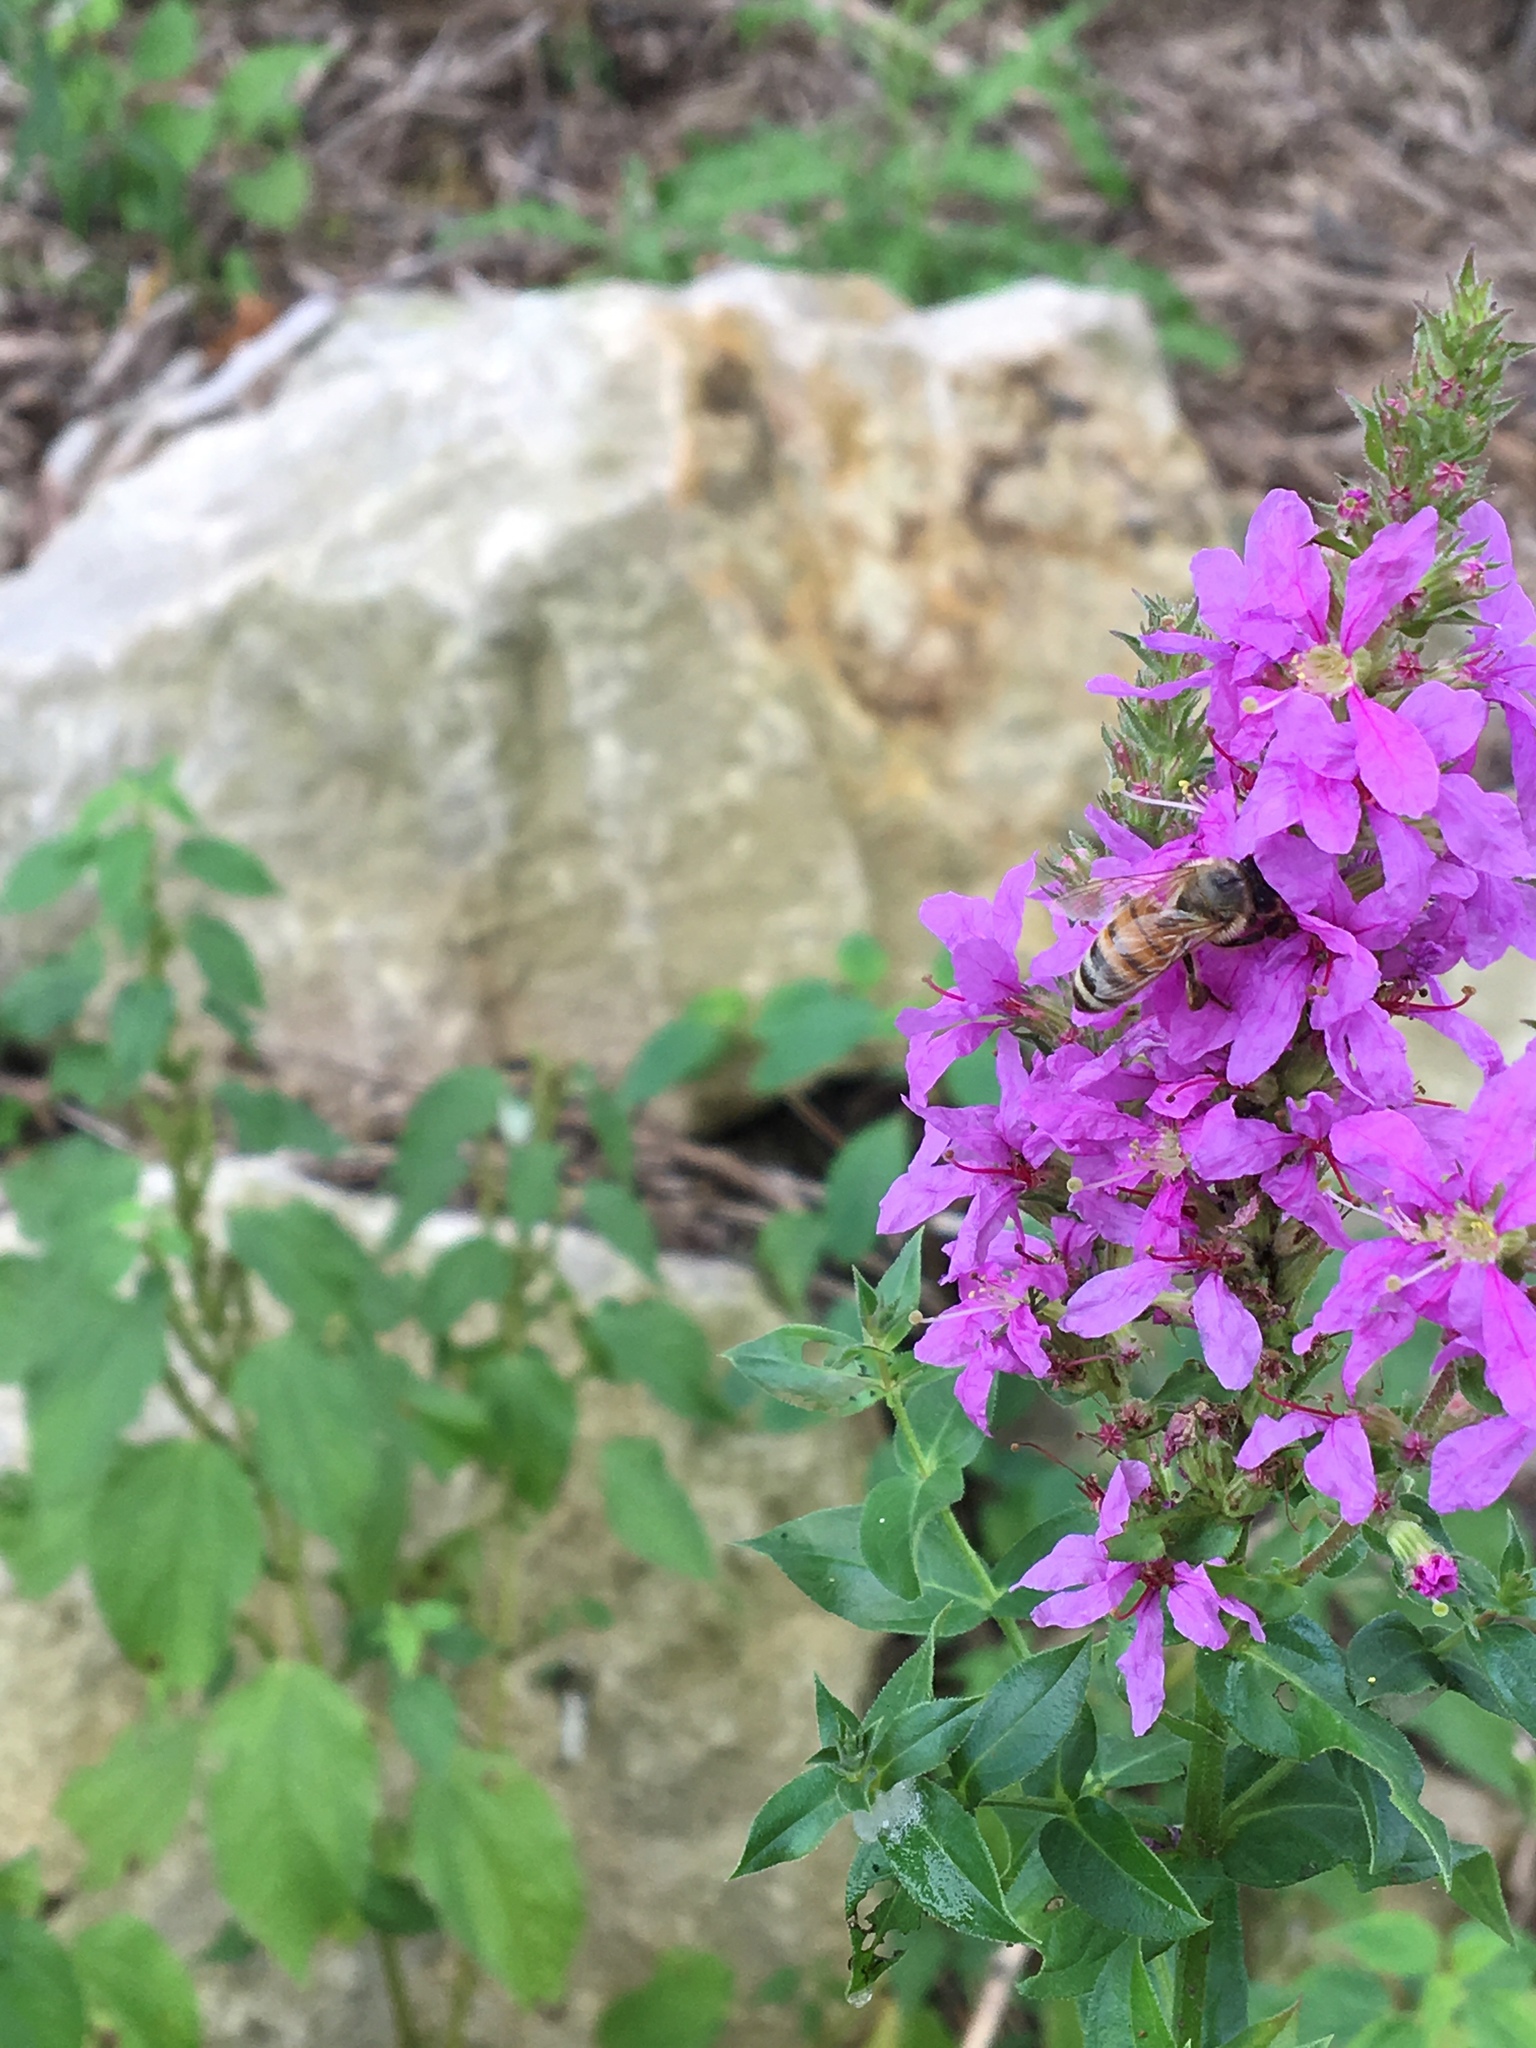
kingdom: Animalia
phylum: Arthropoda
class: Insecta
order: Hymenoptera
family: Apidae
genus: Apis
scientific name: Apis mellifera
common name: Honey bee
